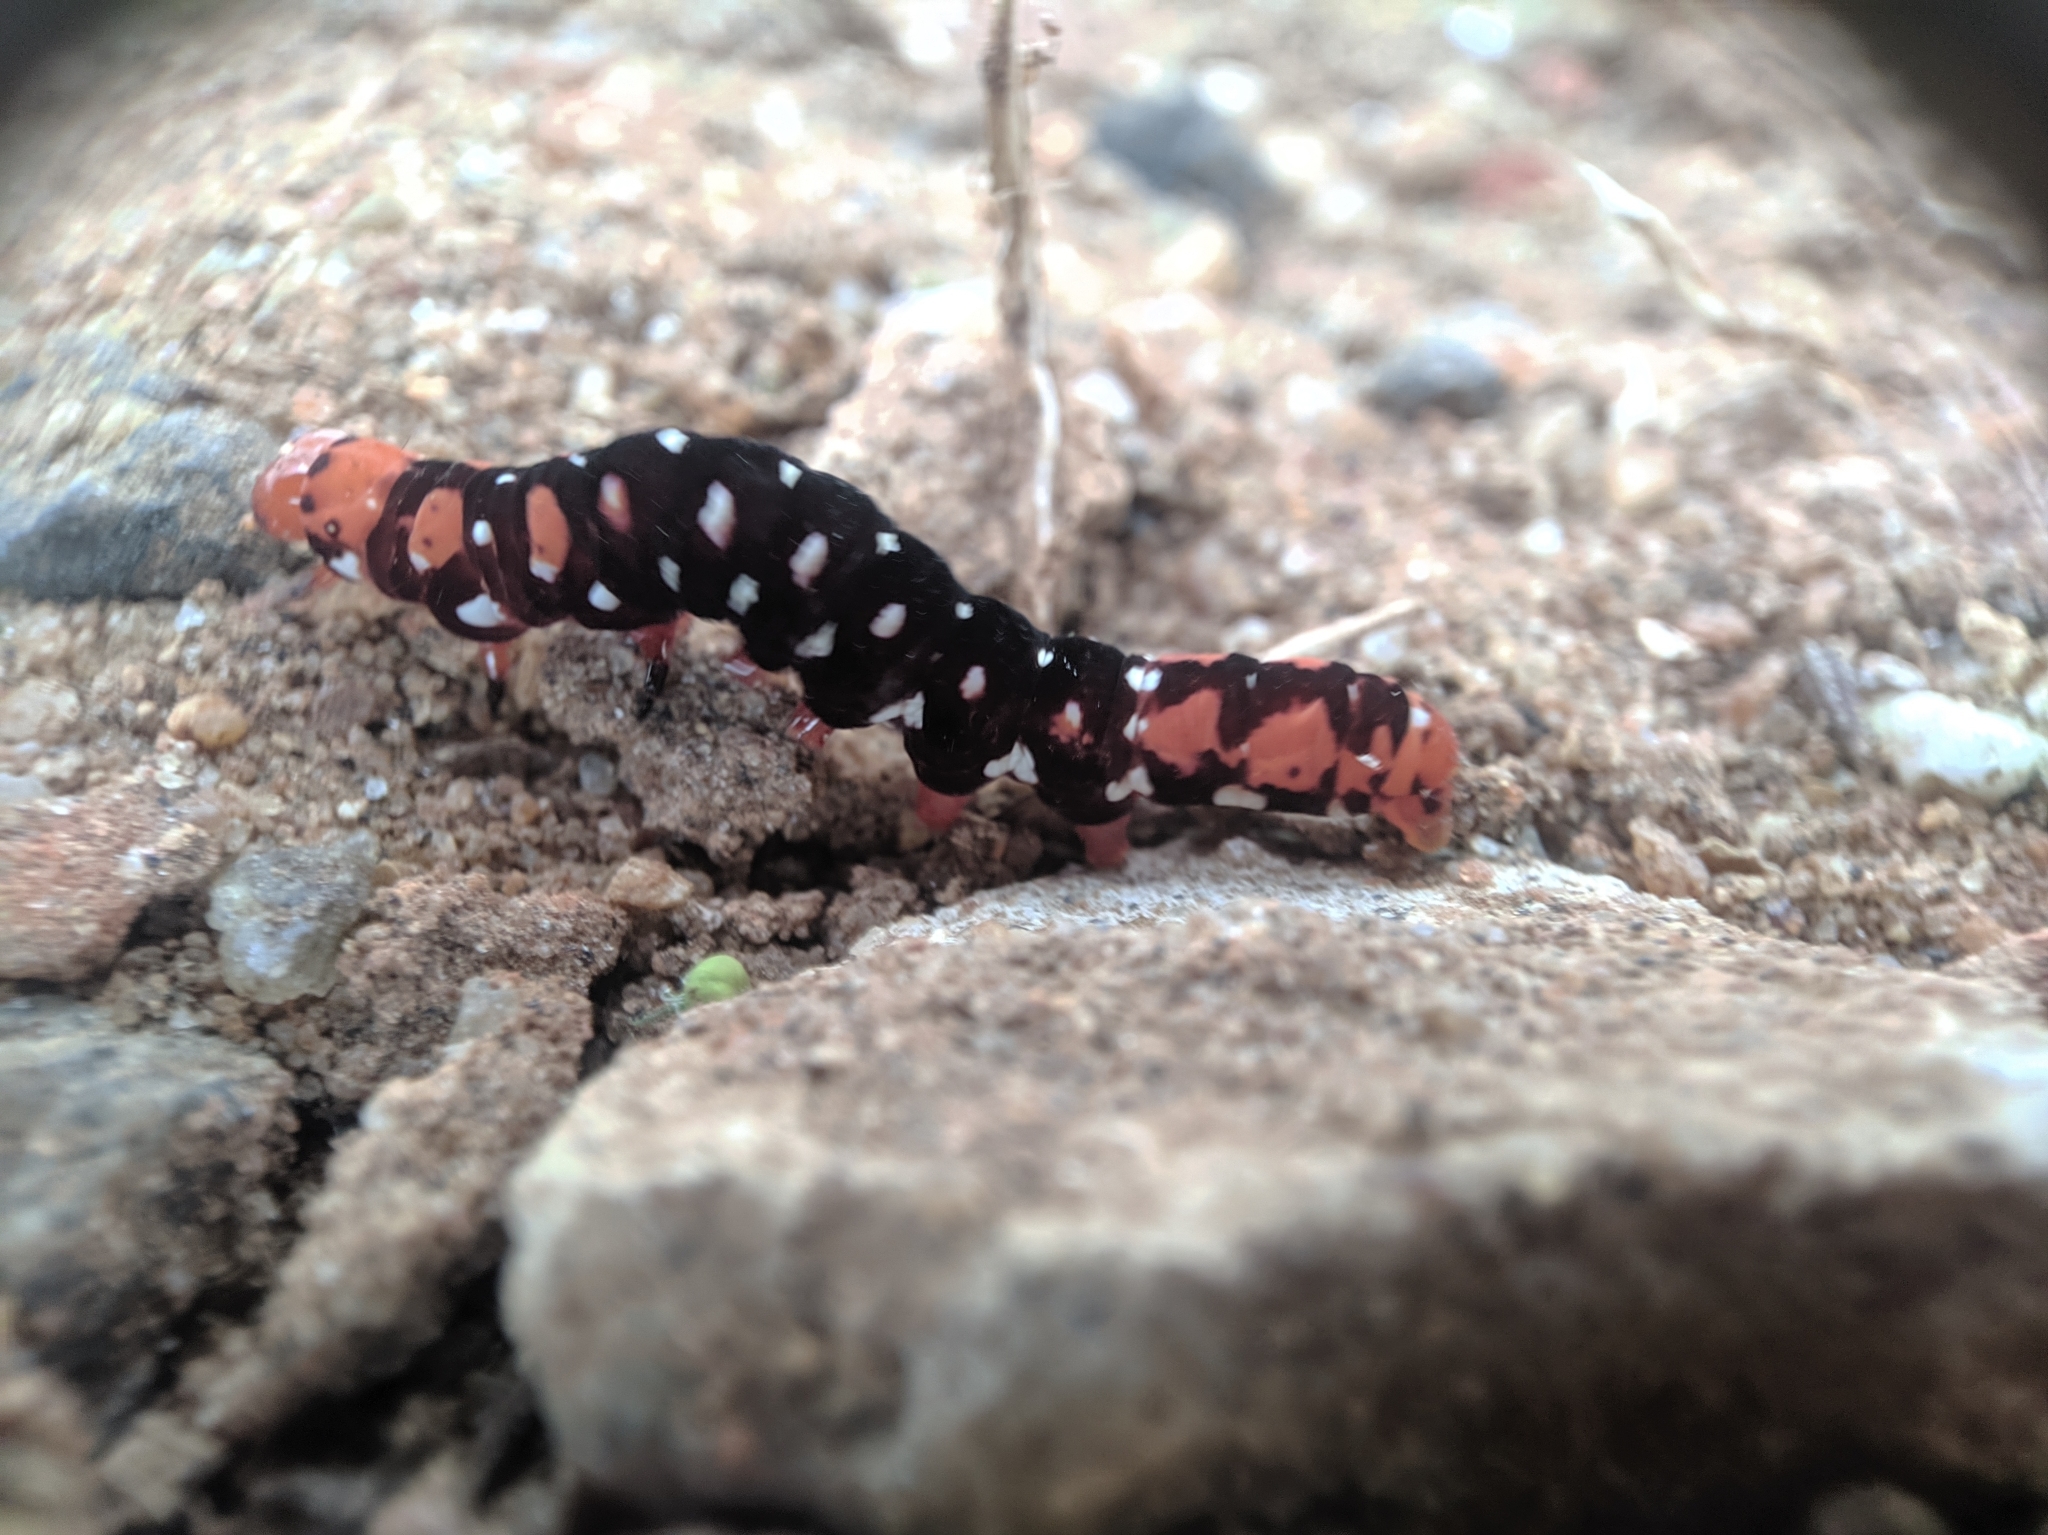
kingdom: Animalia
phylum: Arthropoda
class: Insecta
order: Lepidoptera
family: Noctuidae
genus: Polytela
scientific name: Polytela gloriosae
